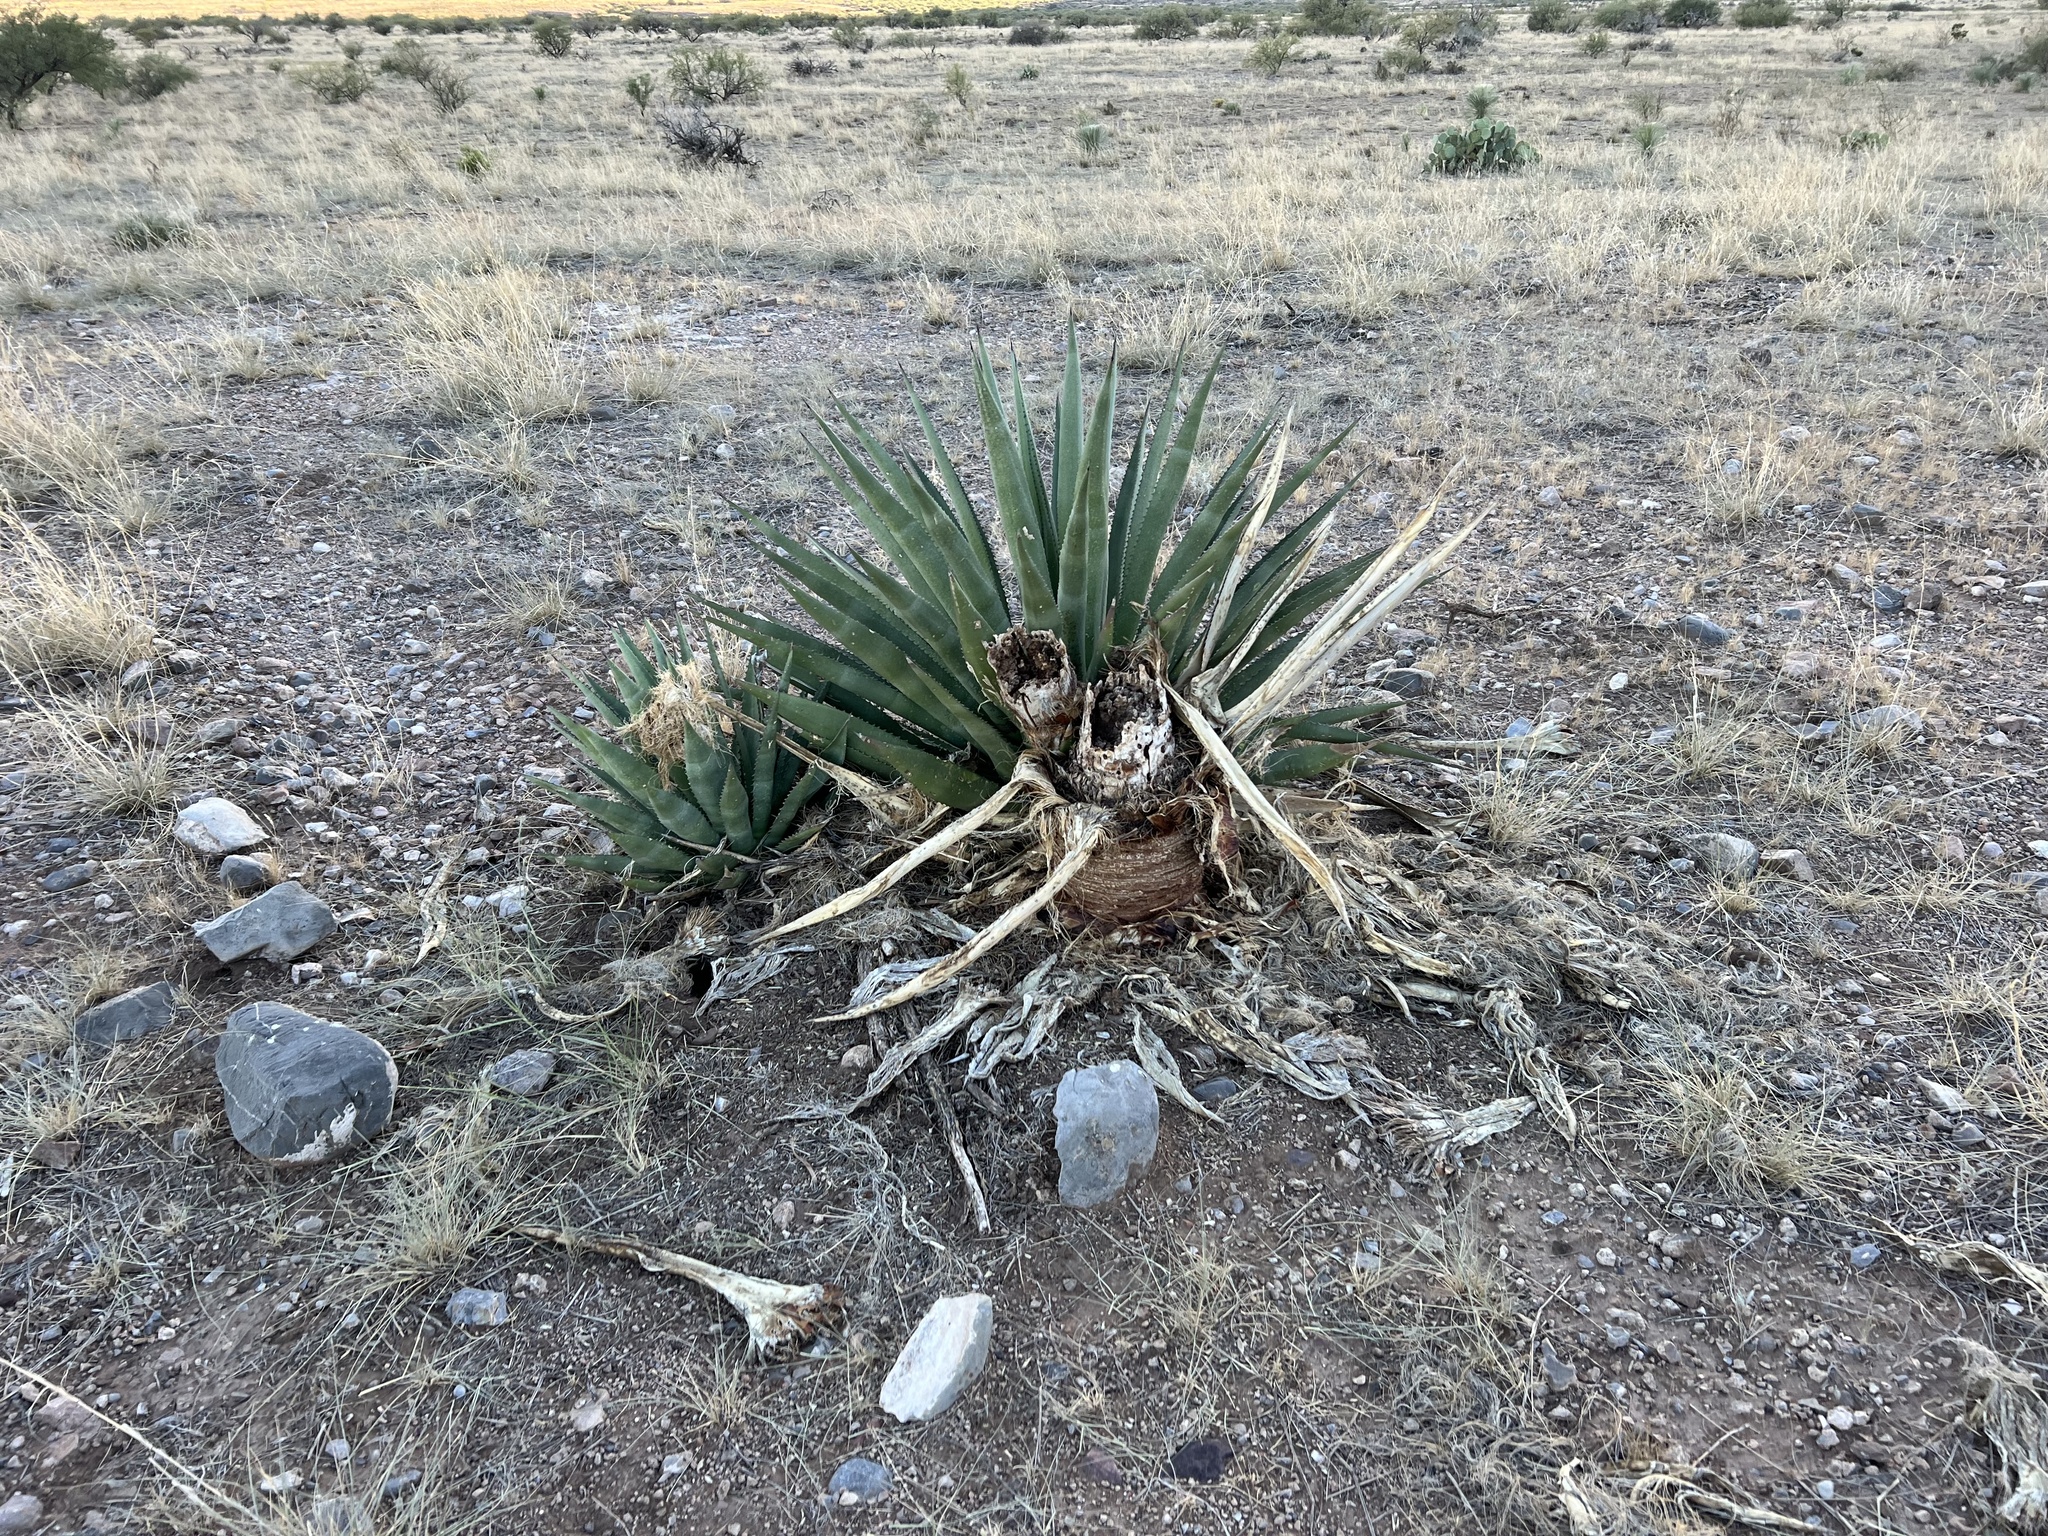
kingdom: Plantae
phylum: Tracheophyta
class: Liliopsida
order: Asparagales
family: Asparagaceae
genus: Agave
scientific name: Agave palmeri
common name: Palmer agave
